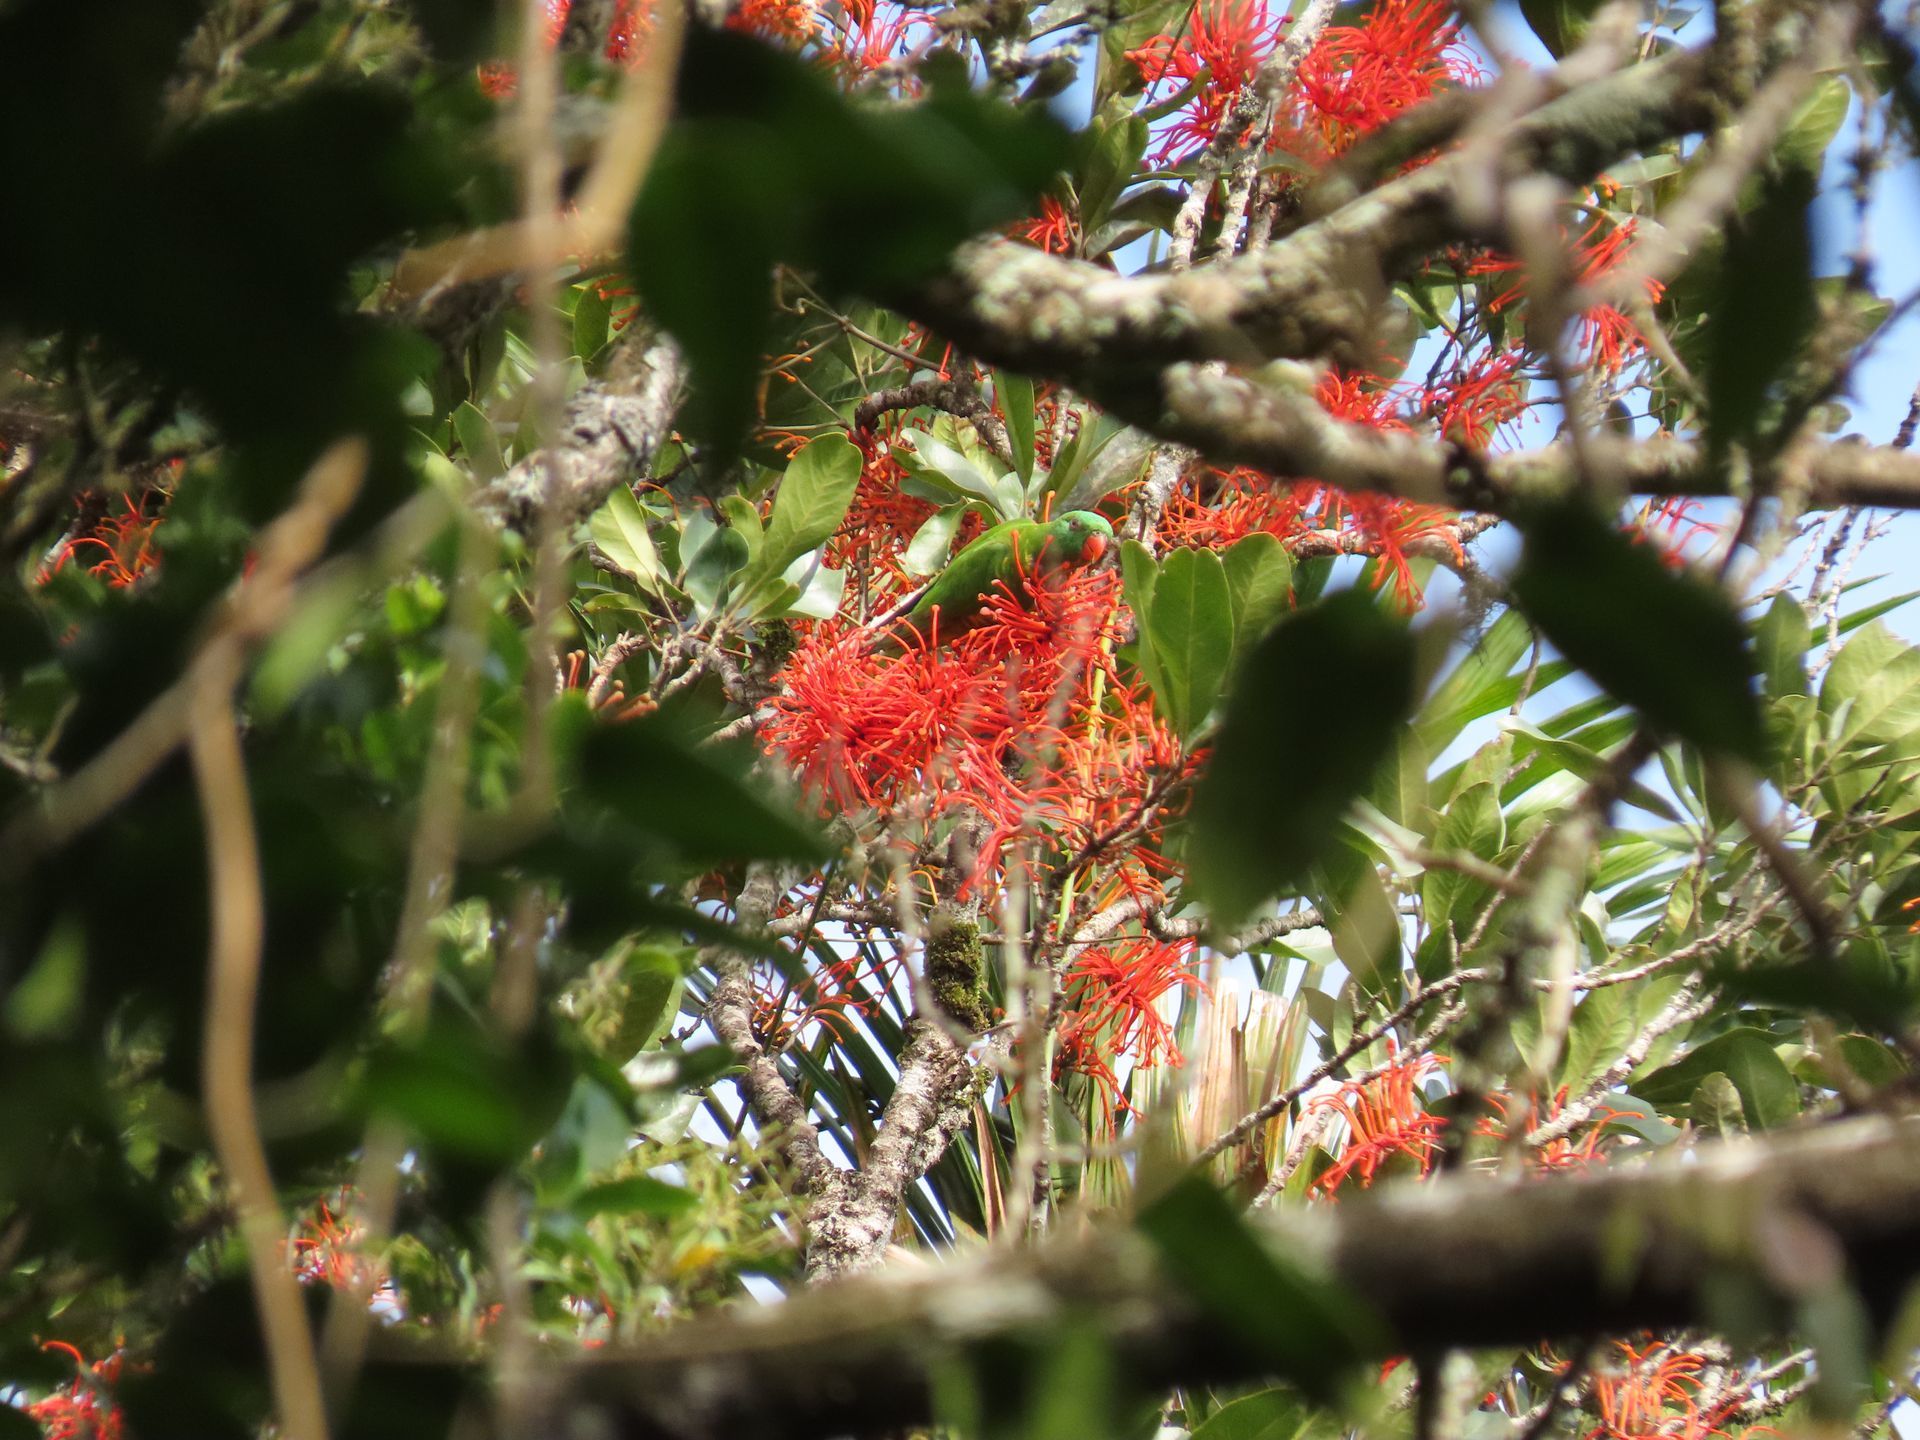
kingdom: Animalia
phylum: Chordata
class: Aves
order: Psittaciformes
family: Psittacidae
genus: Trichoglossus
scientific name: Trichoglossus chlorolepidotus
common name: Scaly-breasted lorikeet
